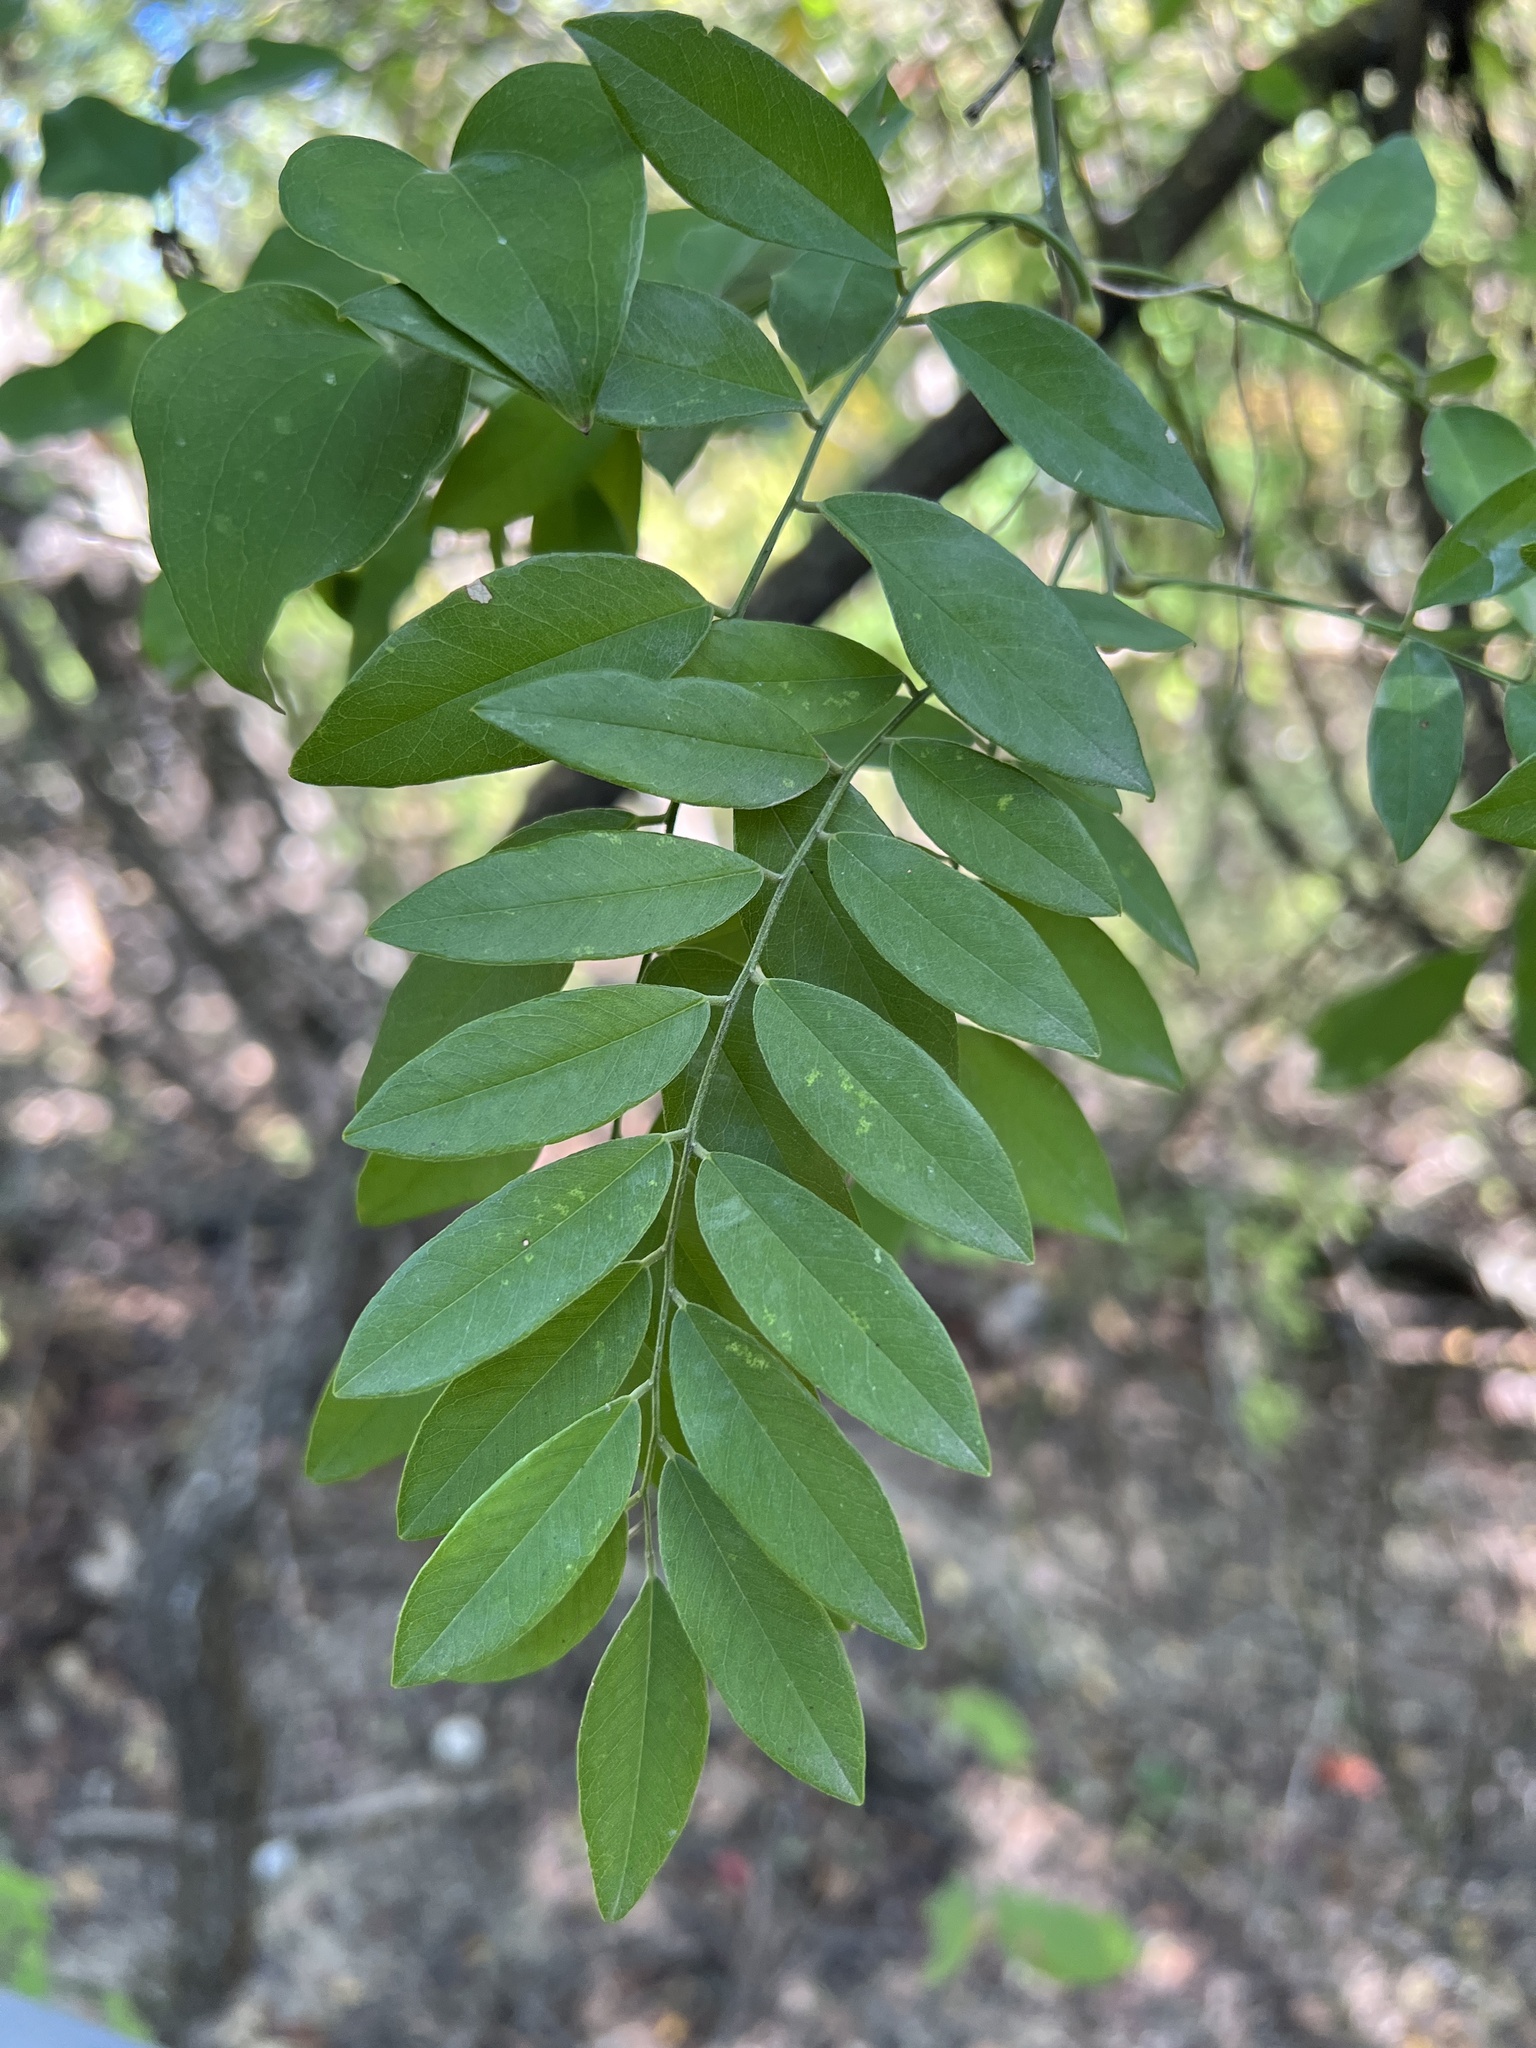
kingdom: Plantae
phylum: Tracheophyta
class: Magnoliopsida
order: Fabales
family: Fabaceae
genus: Styphnolobium
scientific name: Styphnolobium affine
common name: Texas sophora
